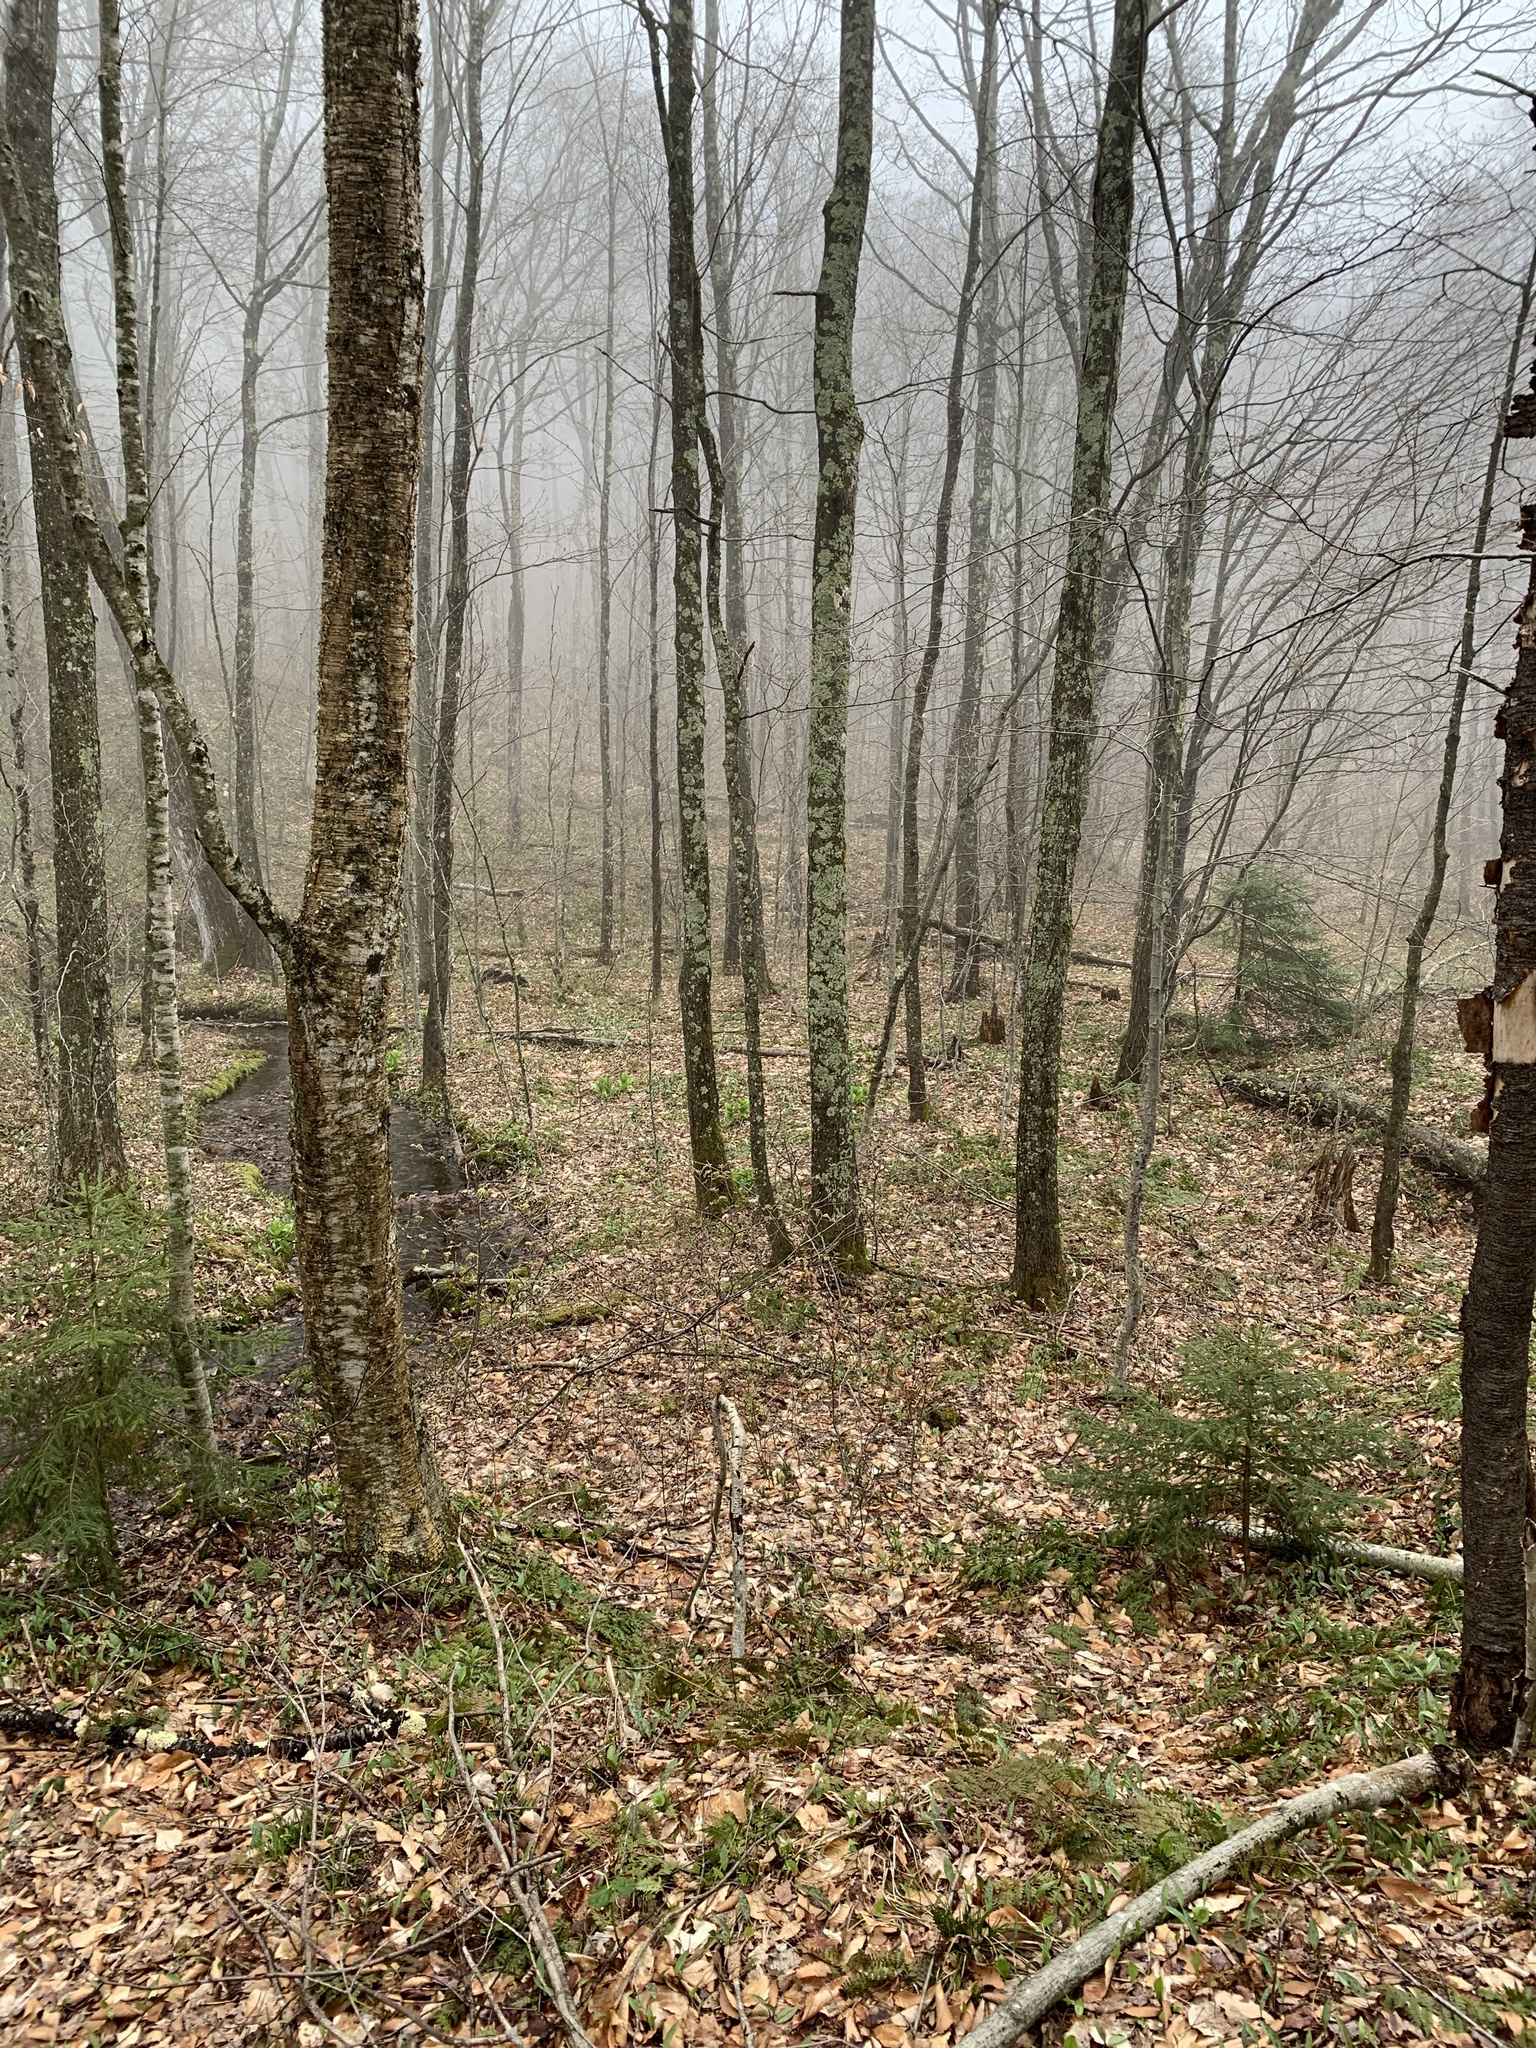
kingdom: Plantae
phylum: Tracheophyta
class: Magnoliopsida
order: Fagales
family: Betulaceae
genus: Betula
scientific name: Betula alleghaniensis
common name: Yellow birch
